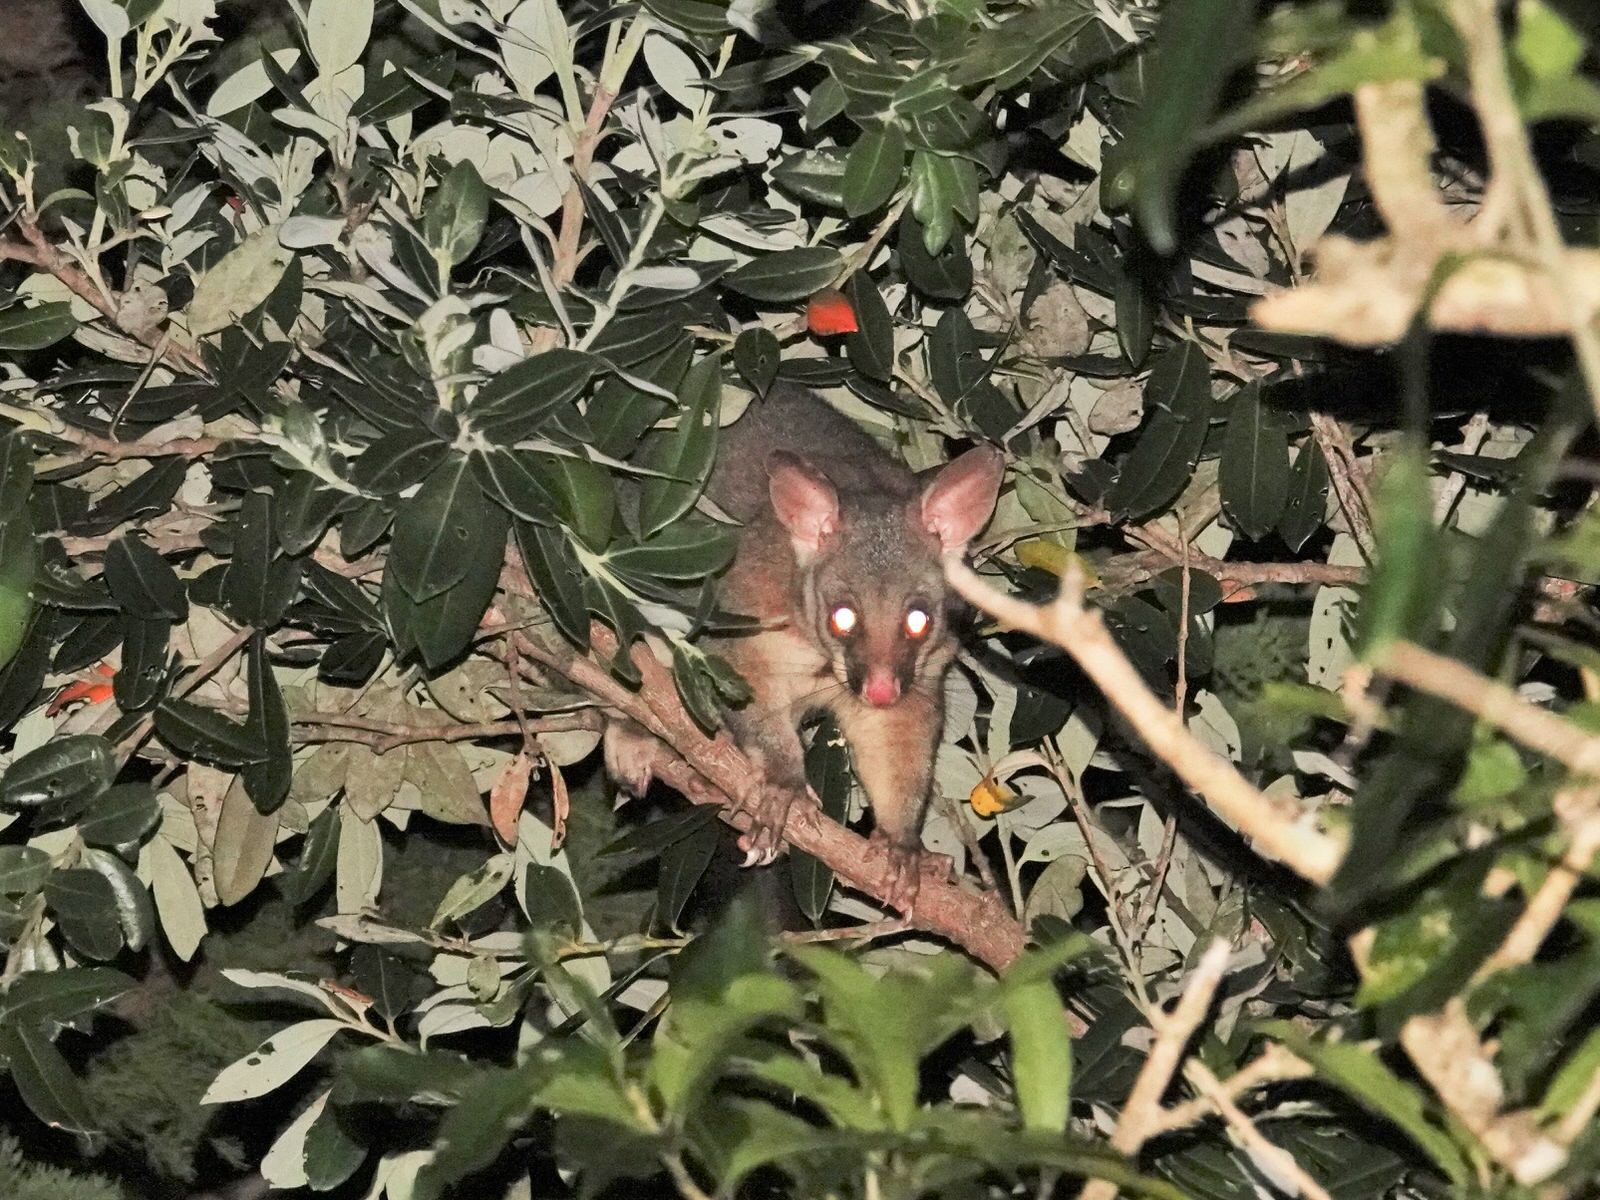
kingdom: Animalia
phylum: Chordata
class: Mammalia
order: Diprotodontia
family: Phalangeridae
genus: Trichosurus
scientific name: Trichosurus vulpecula
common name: Common brushtail
